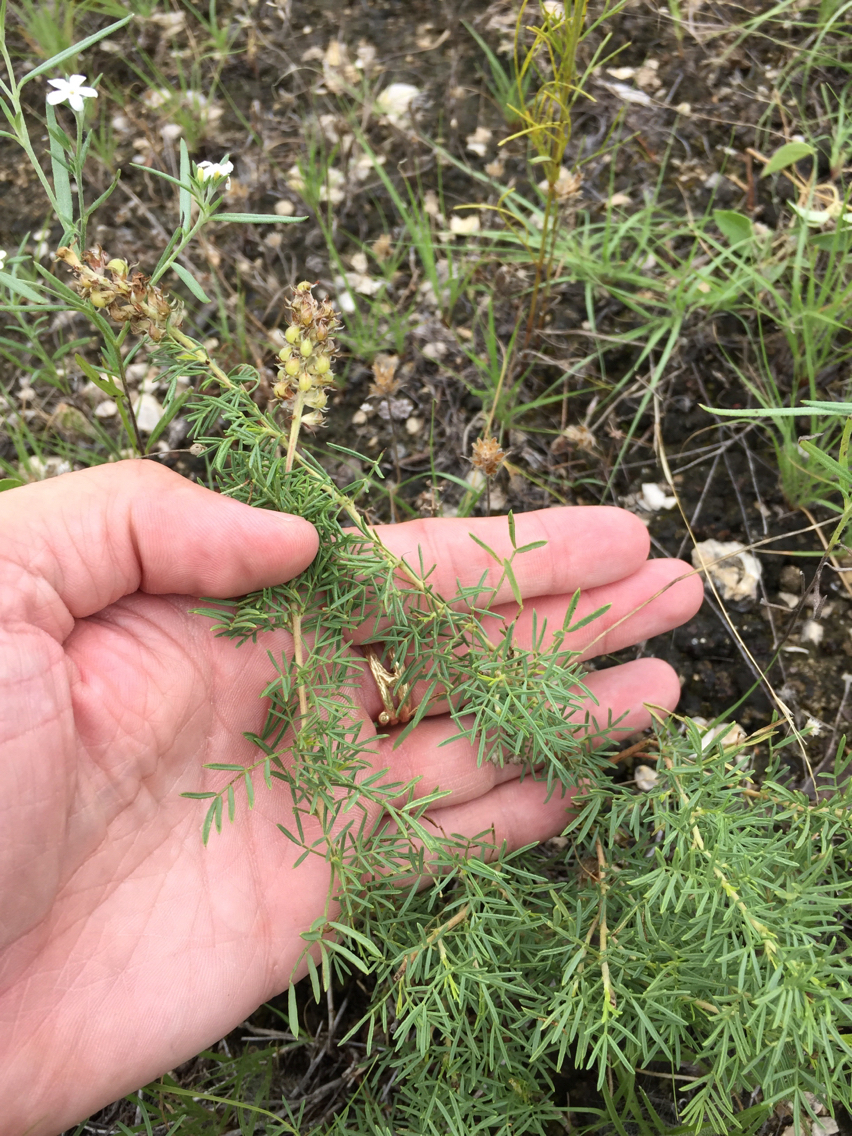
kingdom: Plantae
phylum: Tracheophyta
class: Magnoliopsida
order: Fabales
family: Fabaceae
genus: Dalea
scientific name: Dalea reverchonii
